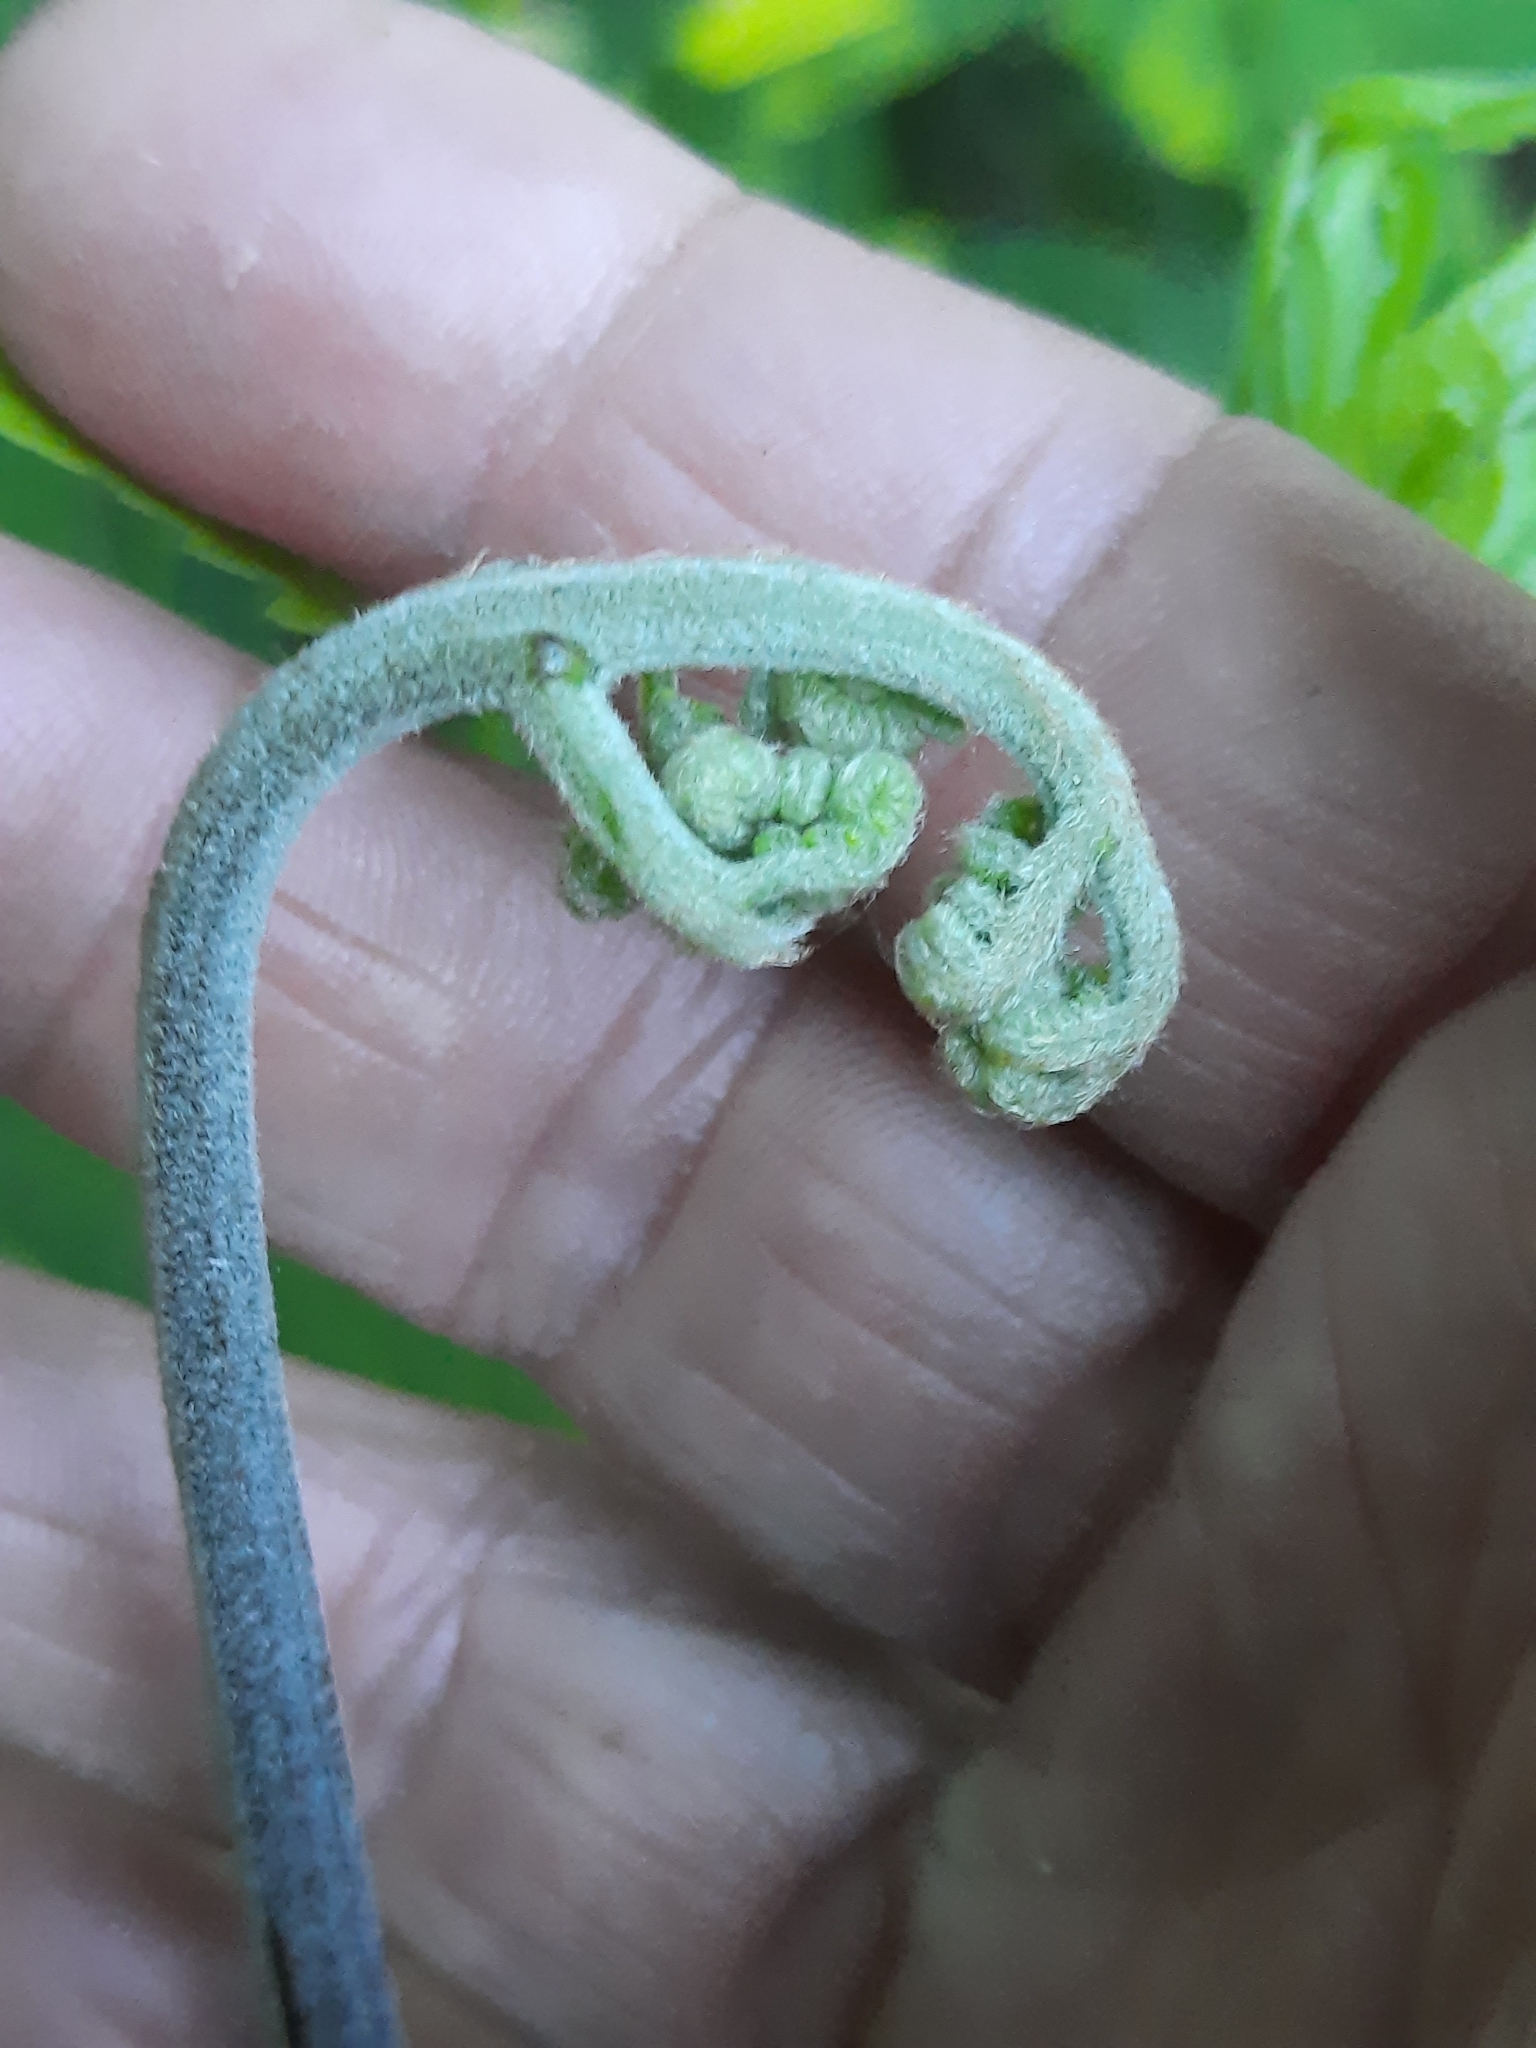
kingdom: Plantae
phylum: Tracheophyta
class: Polypodiopsida
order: Polypodiales
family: Dennstaedtiaceae
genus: Pteridium
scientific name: Pteridium aquilinum
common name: Bracken
